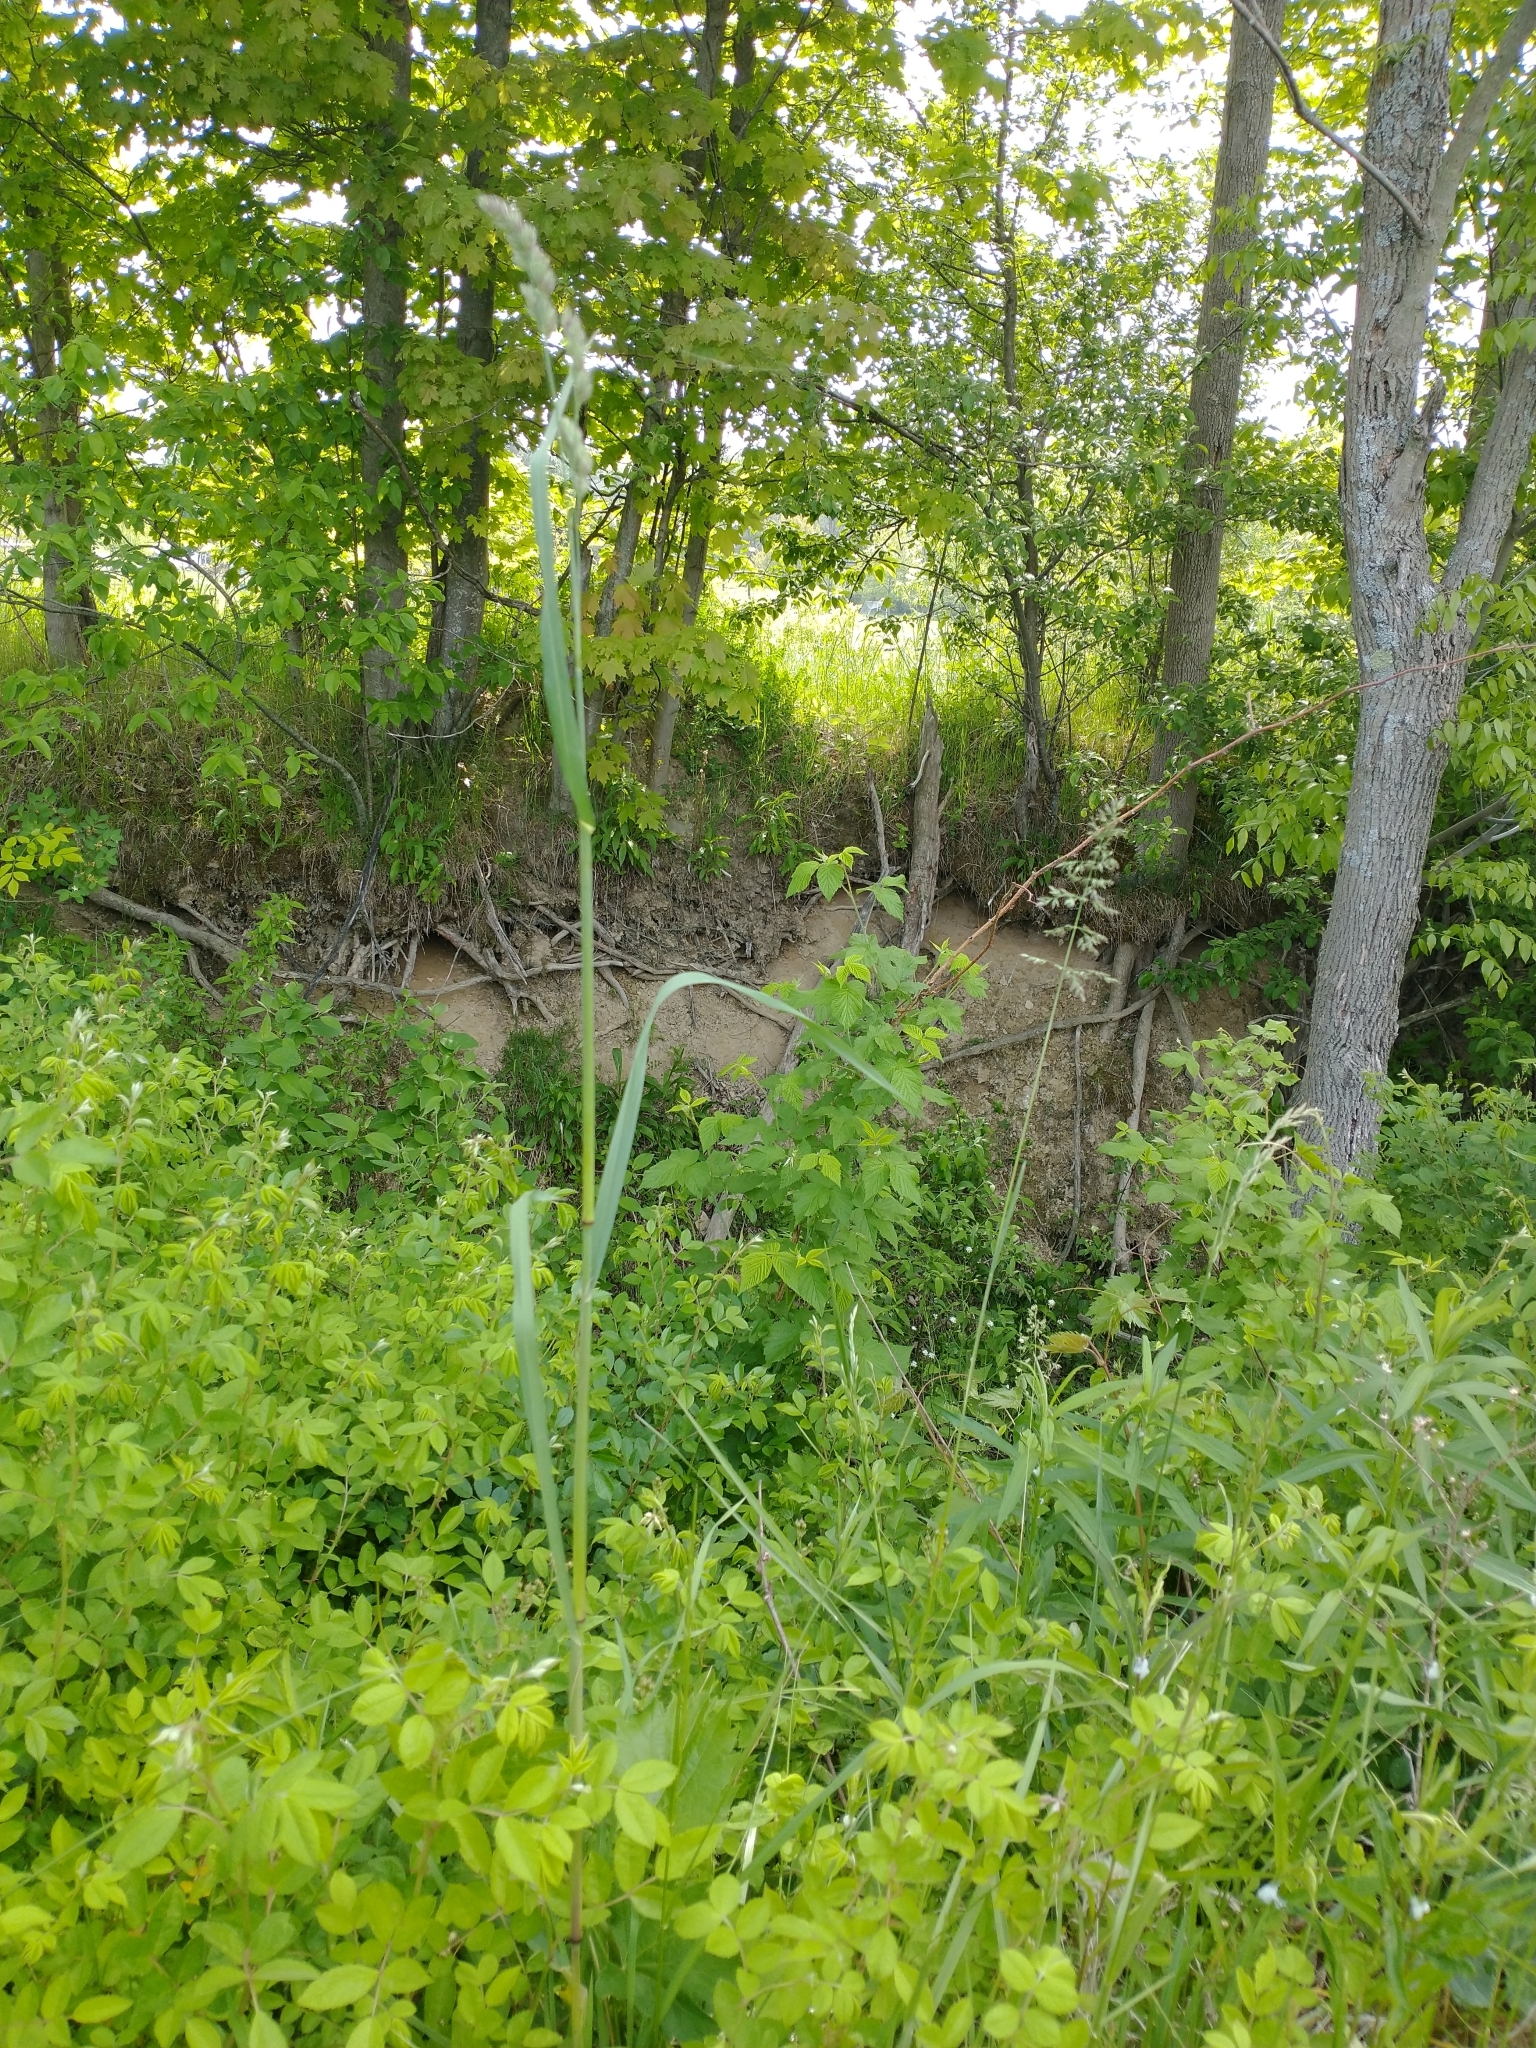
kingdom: Plantae
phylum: Tracheophyta
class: Liliopsida
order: Poales
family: Poaceae
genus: Dactylis
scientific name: Dactylis glomerata
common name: Orchardgrass
